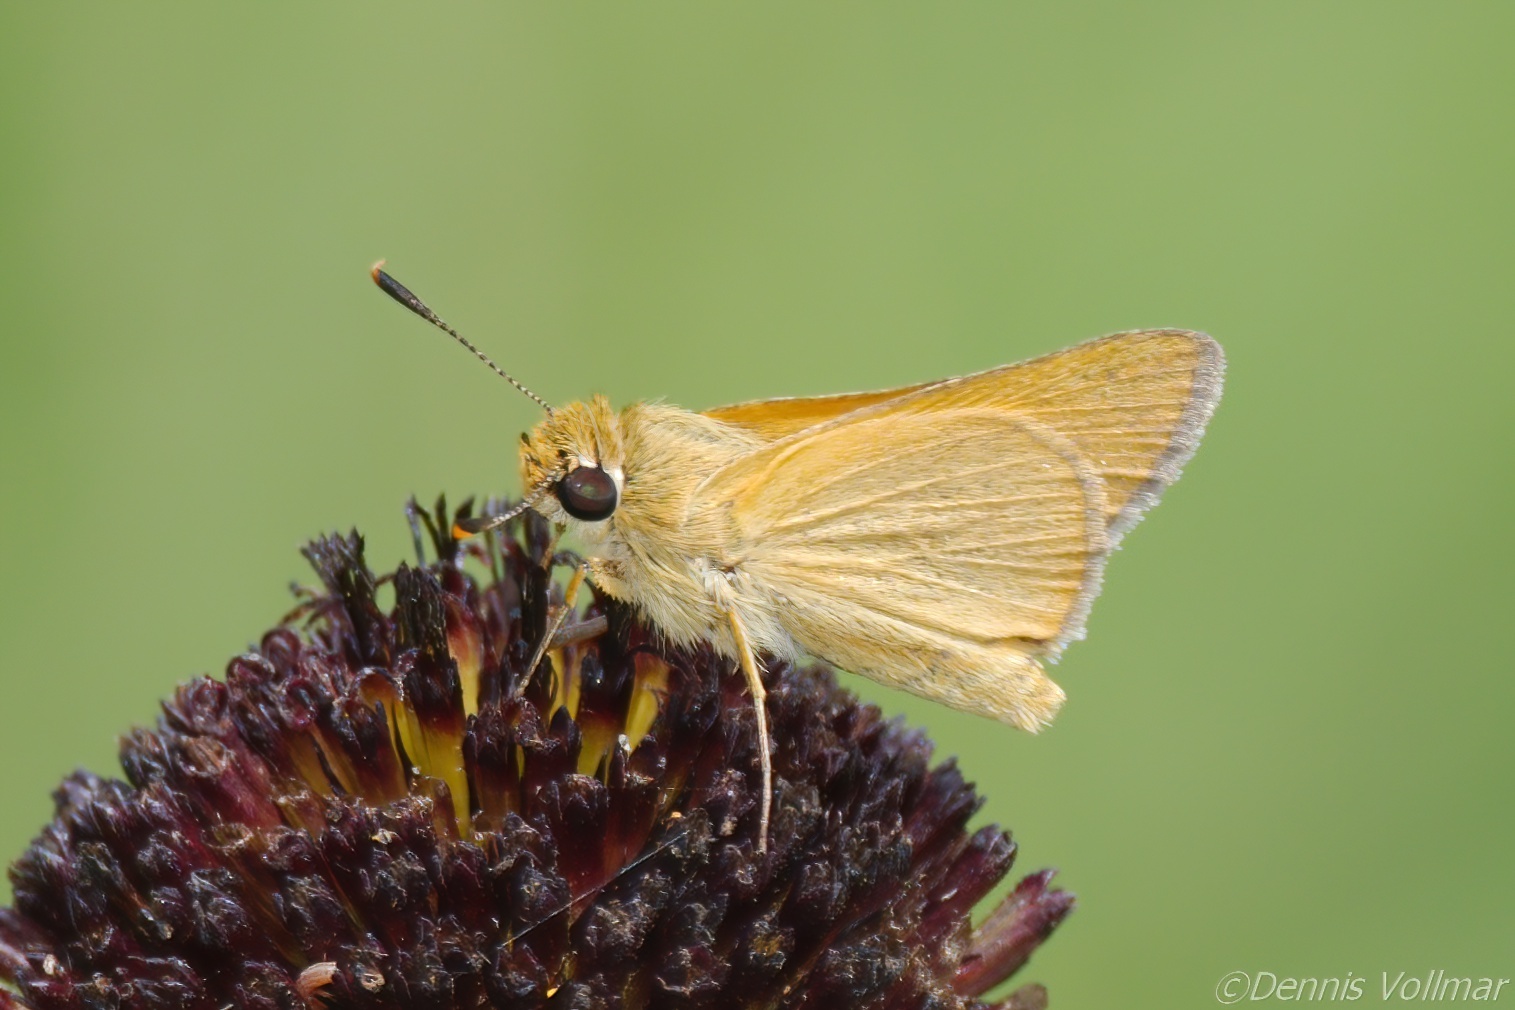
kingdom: Animalia
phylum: Arthropoda
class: Insecta
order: Lepidoptera
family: Hesperiidae
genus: Atrytone
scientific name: Atrytone arogos
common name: Arogos skipper
